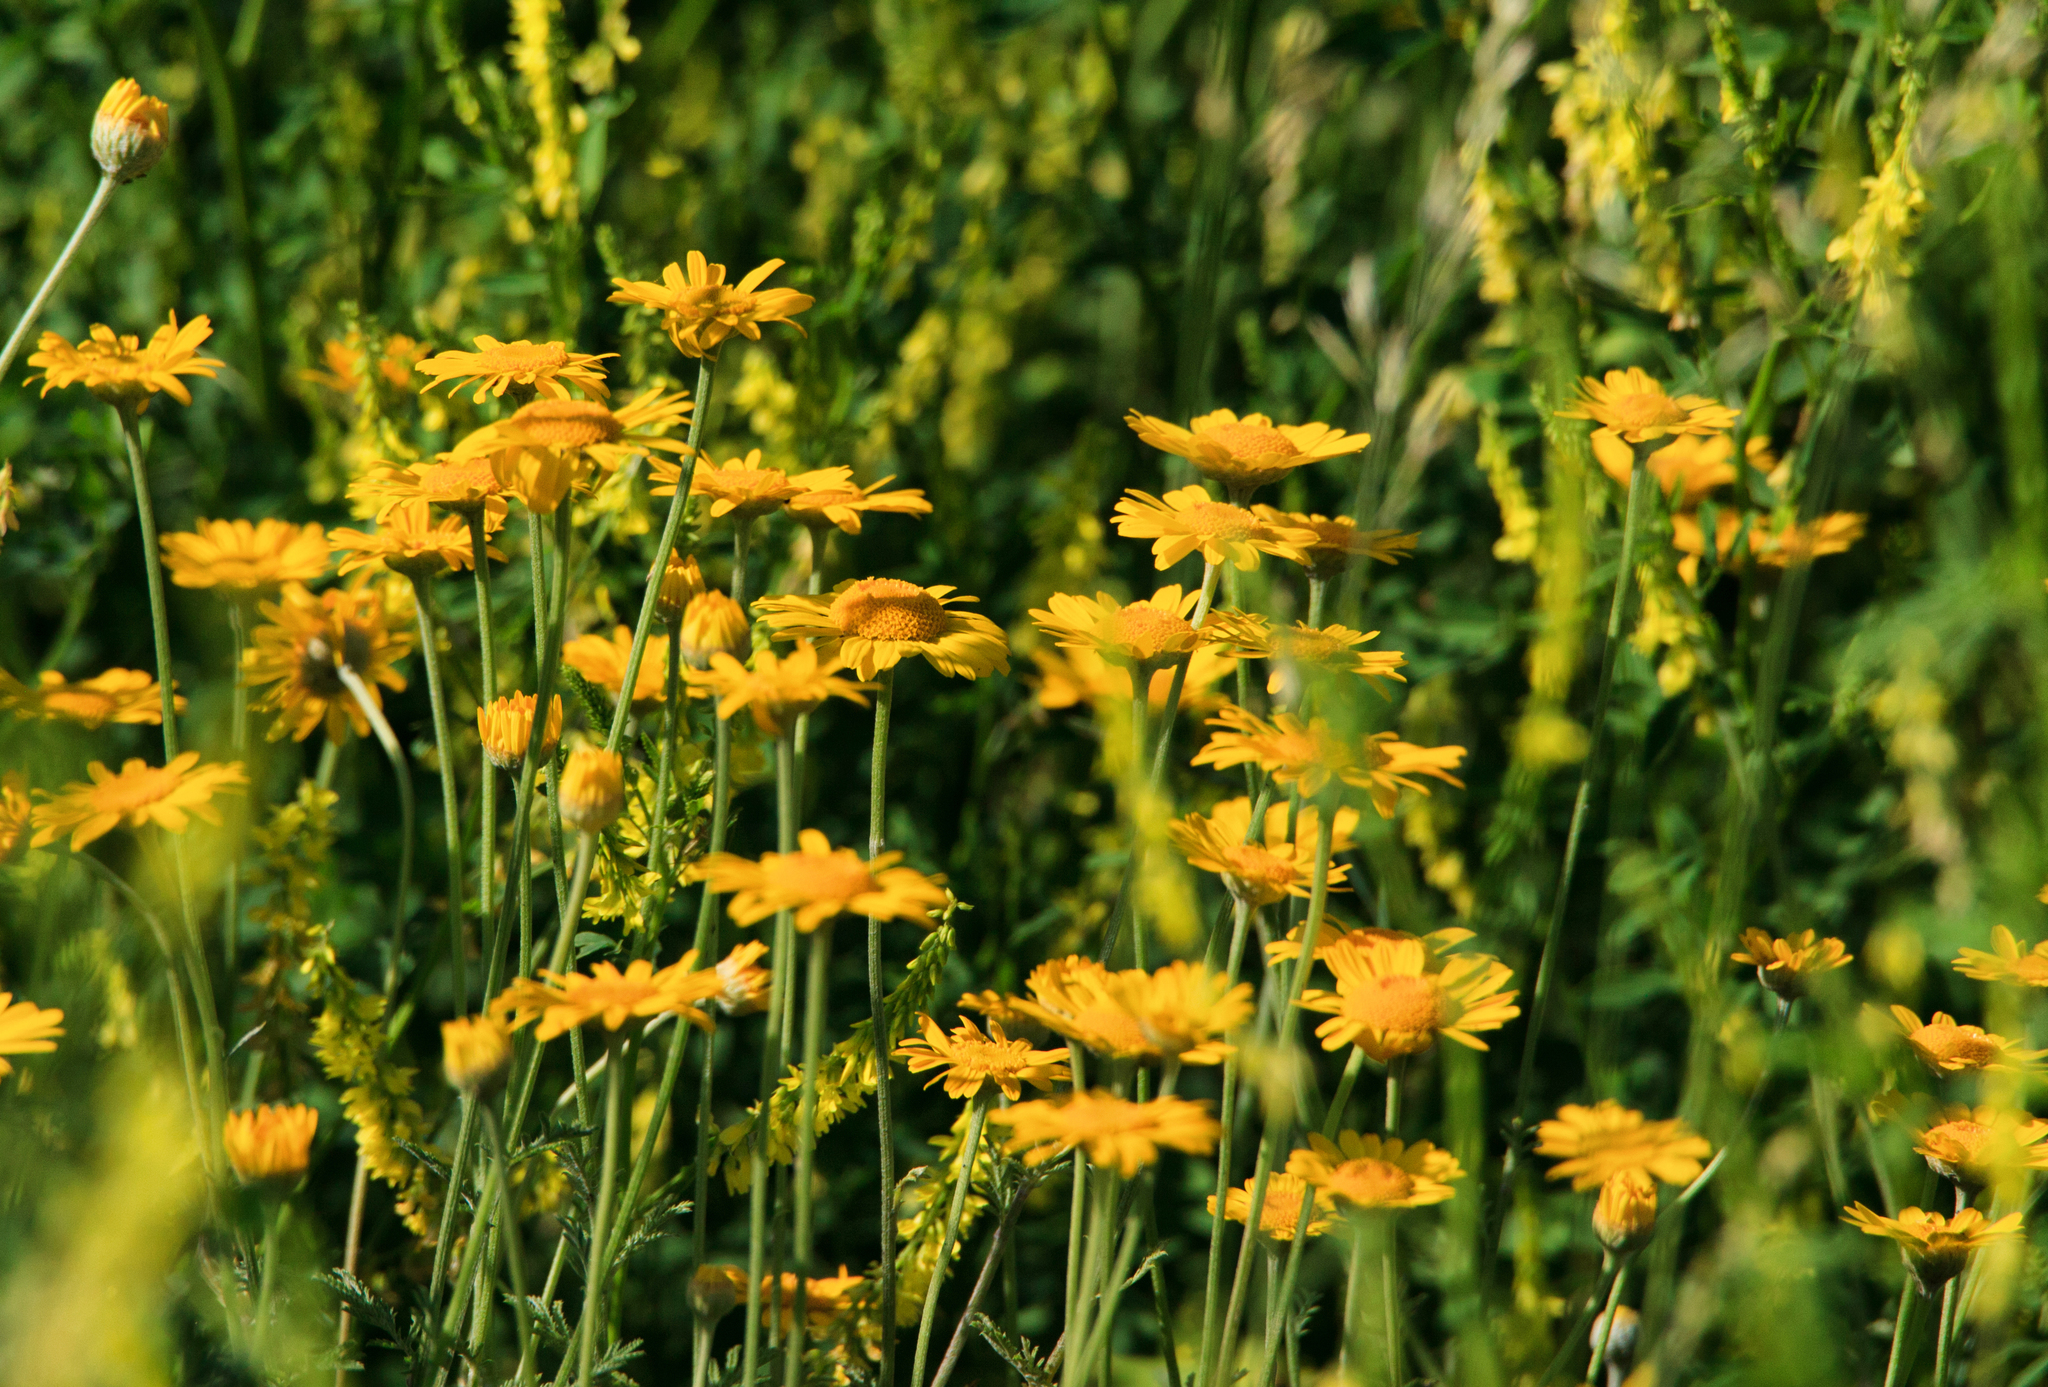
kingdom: Plantae
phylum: Tracheophyta
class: Magnoliopsida
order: Asterales
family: Asteraceae
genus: Cota
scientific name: Cota tinctoria
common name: Golden chamomile
